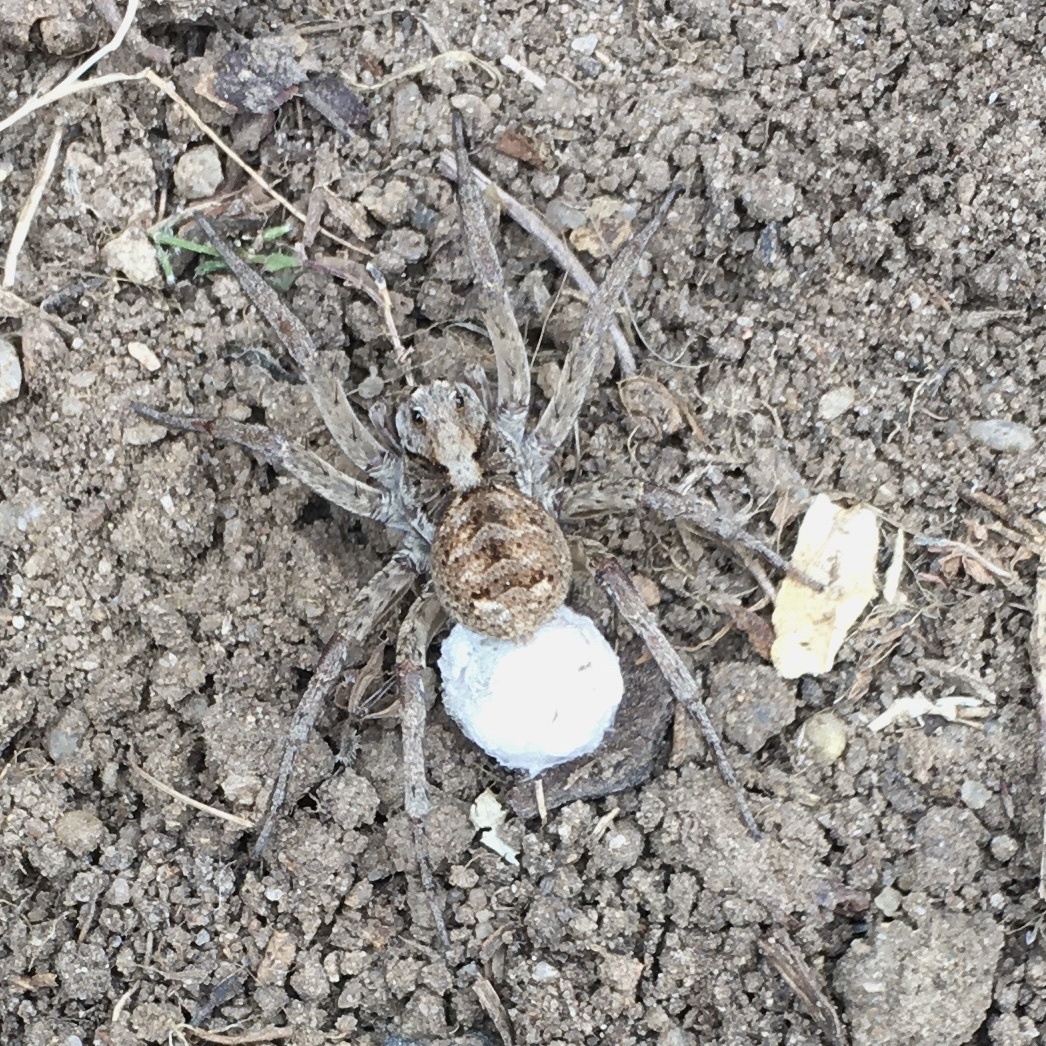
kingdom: Animalia
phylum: Arthropoda
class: Arachnida
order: Araneae
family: Lycosidae
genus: Venator
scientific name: Venator spenceri
